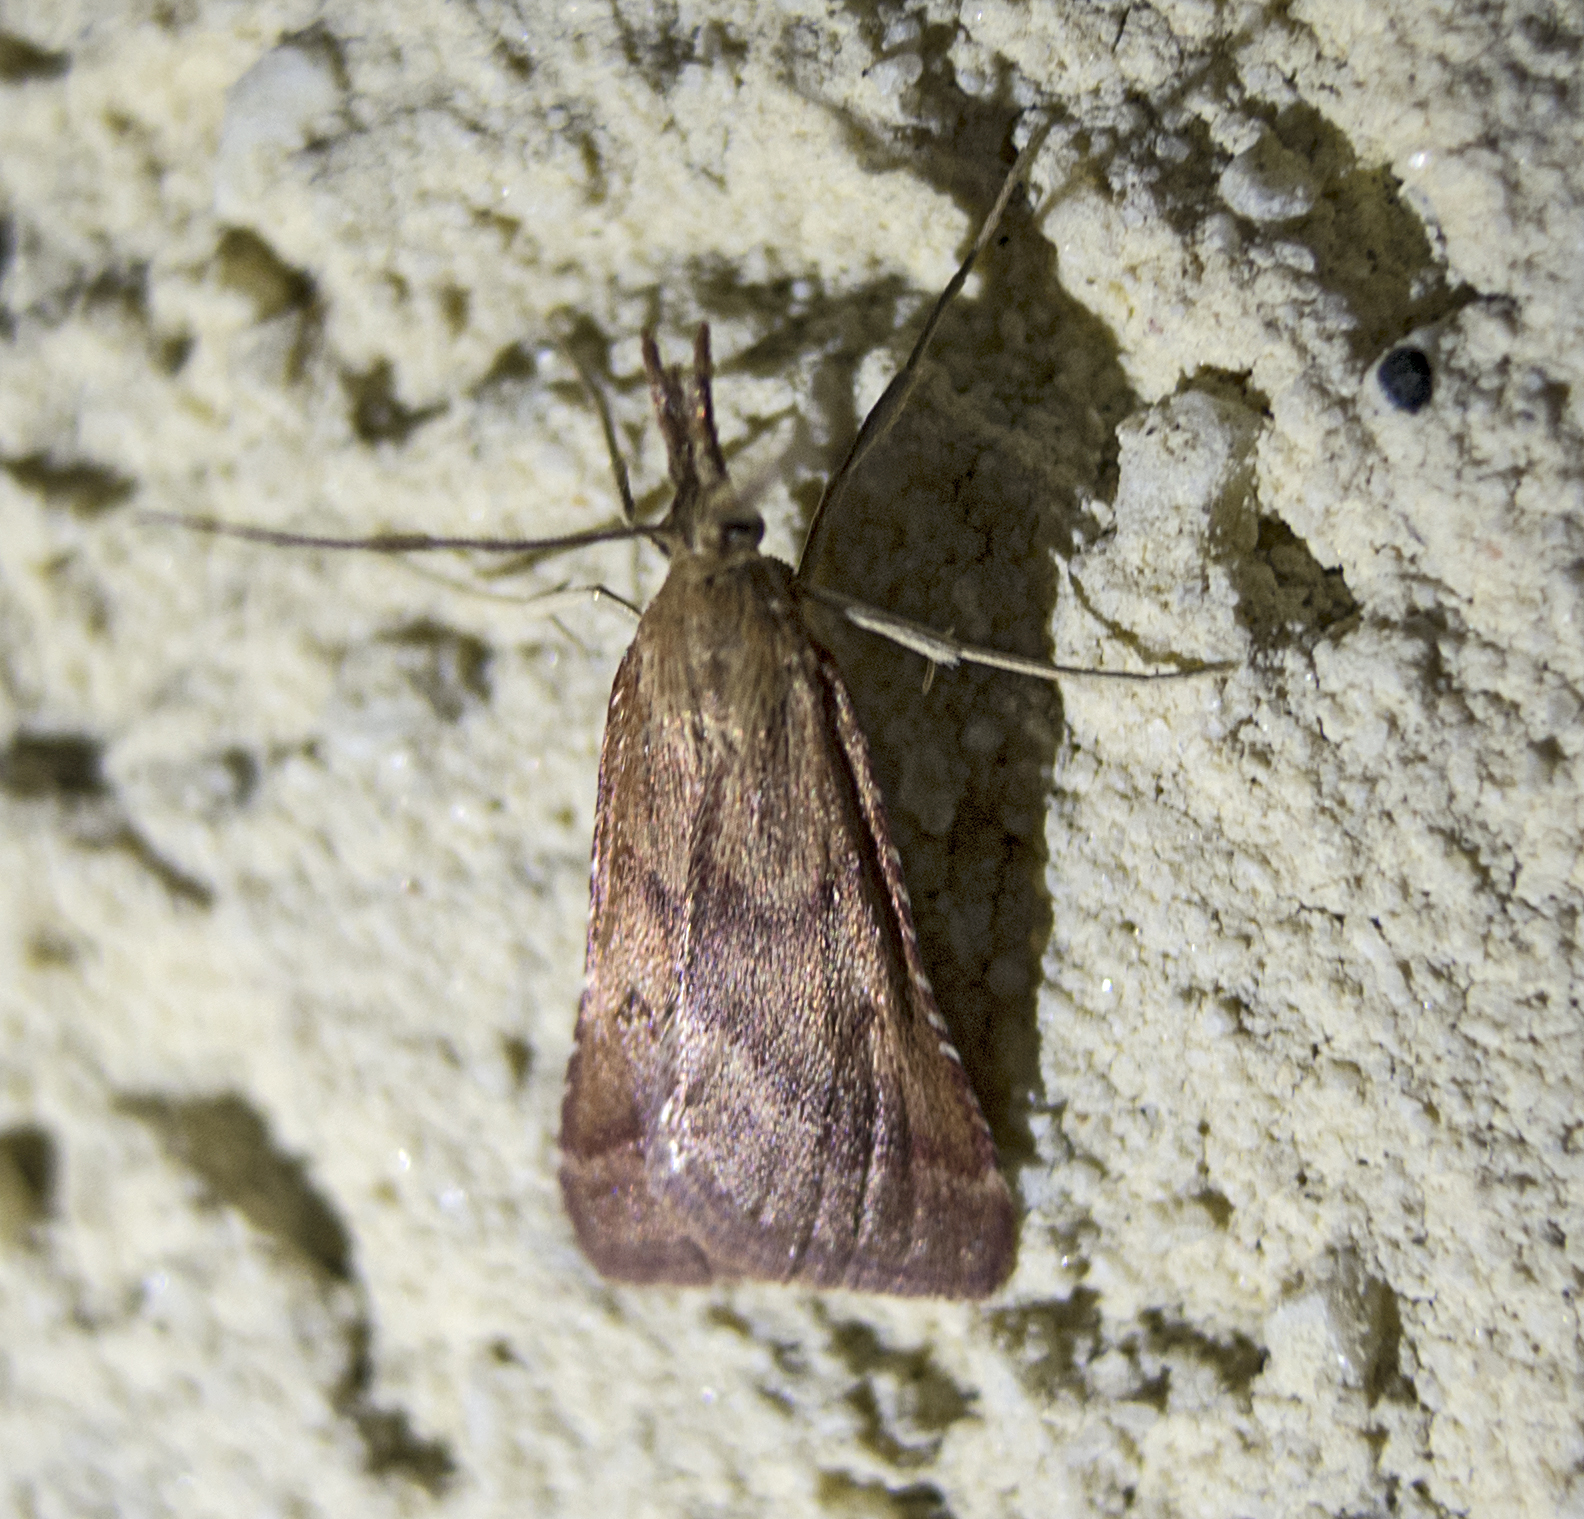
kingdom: Animalia
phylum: Arthropoda
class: Insecta
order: Lepidoptera
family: Pyralidae
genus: Synaphe
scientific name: Synaphe punctalis
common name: Long-legged tabby
